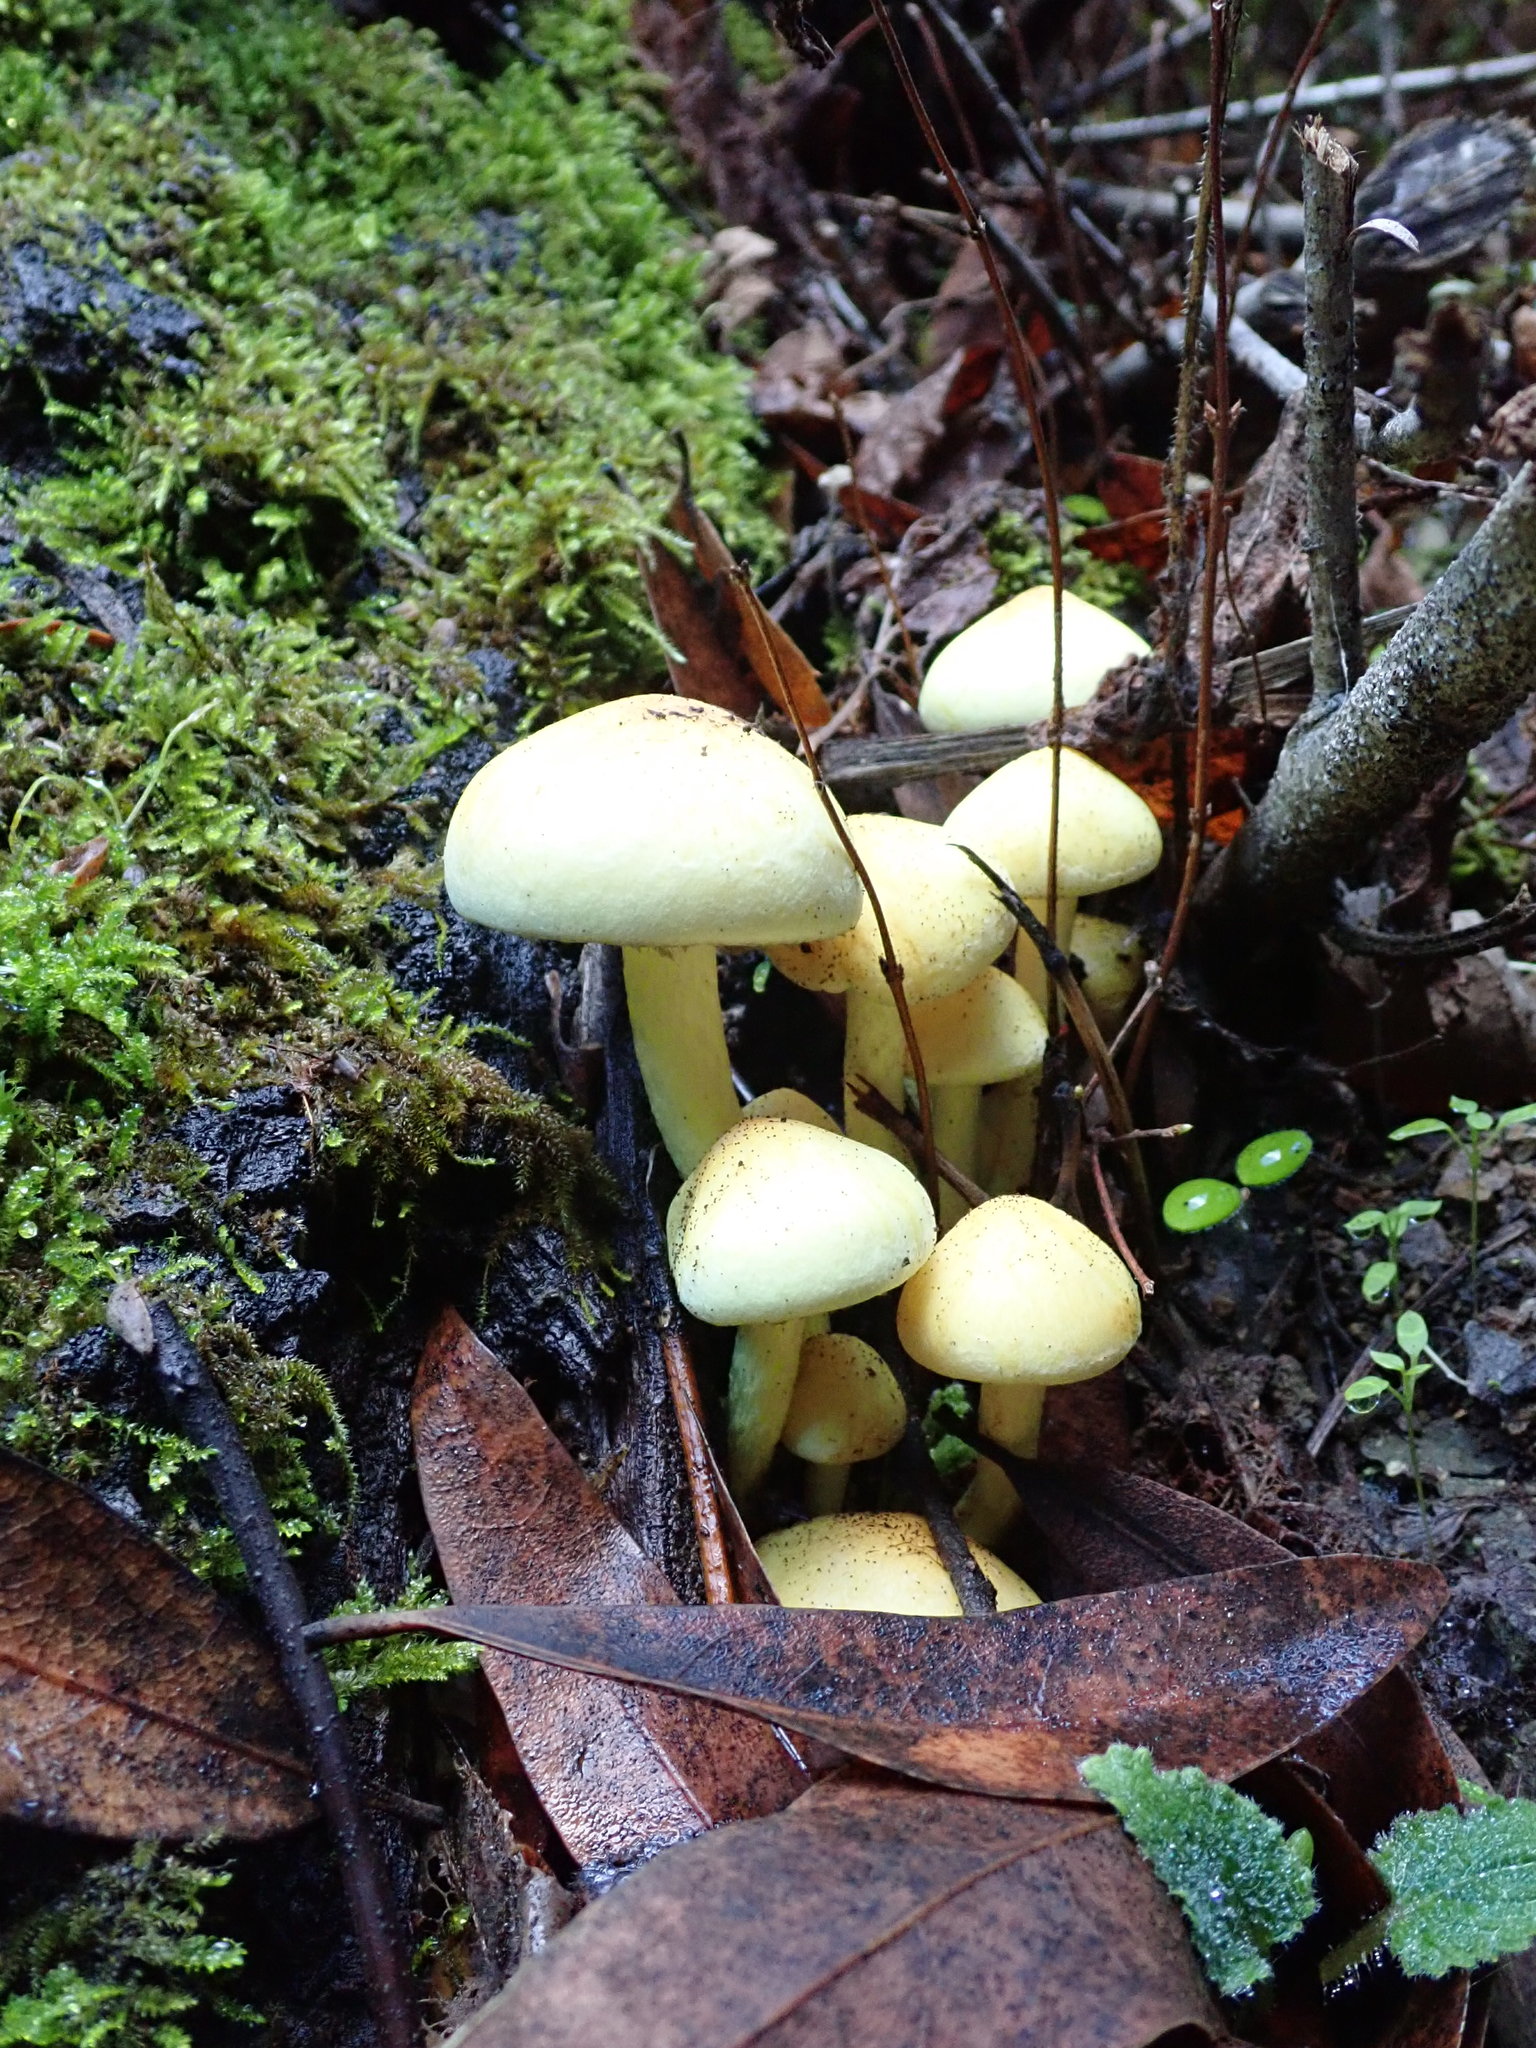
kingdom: Fungi
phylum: Basidiomycota
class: Agaricomycetes
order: Agaricales
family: Strophariaceae
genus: Hypholoma
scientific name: Hypholoma fasciculare
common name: Sulphur tuft
